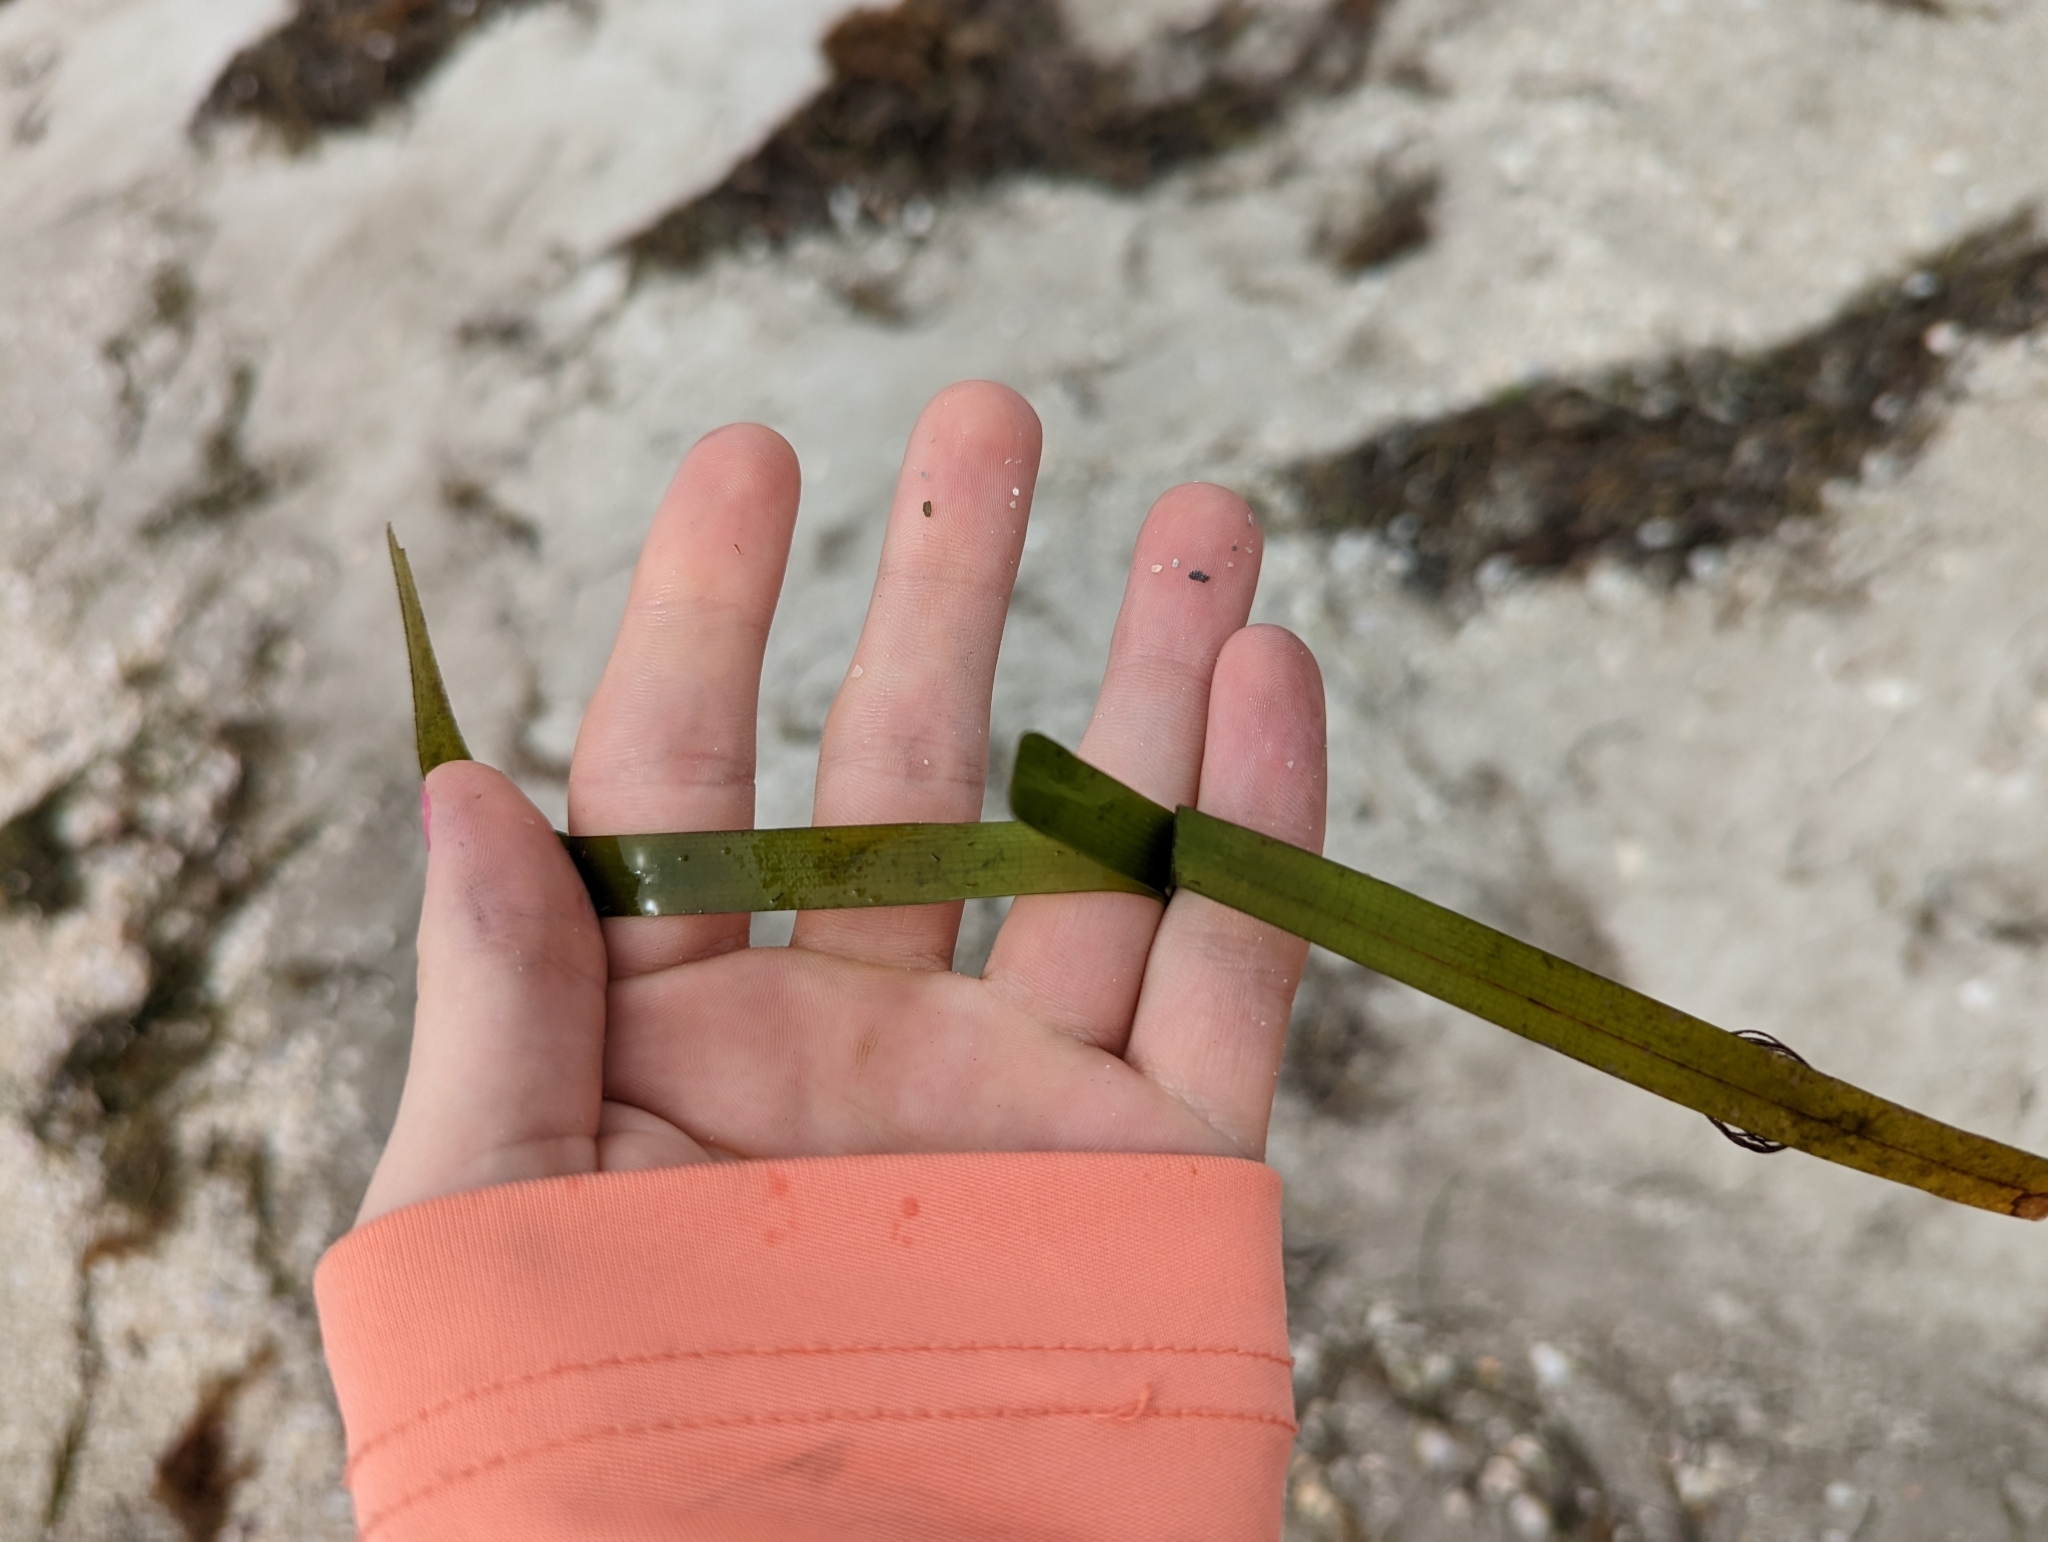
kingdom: Plantae
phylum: Tracheophyta
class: Liliopsida
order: Alismatales
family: Hydrocharitaceae
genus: Thalassia
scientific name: Thalassia testudinum
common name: Species code: tt
